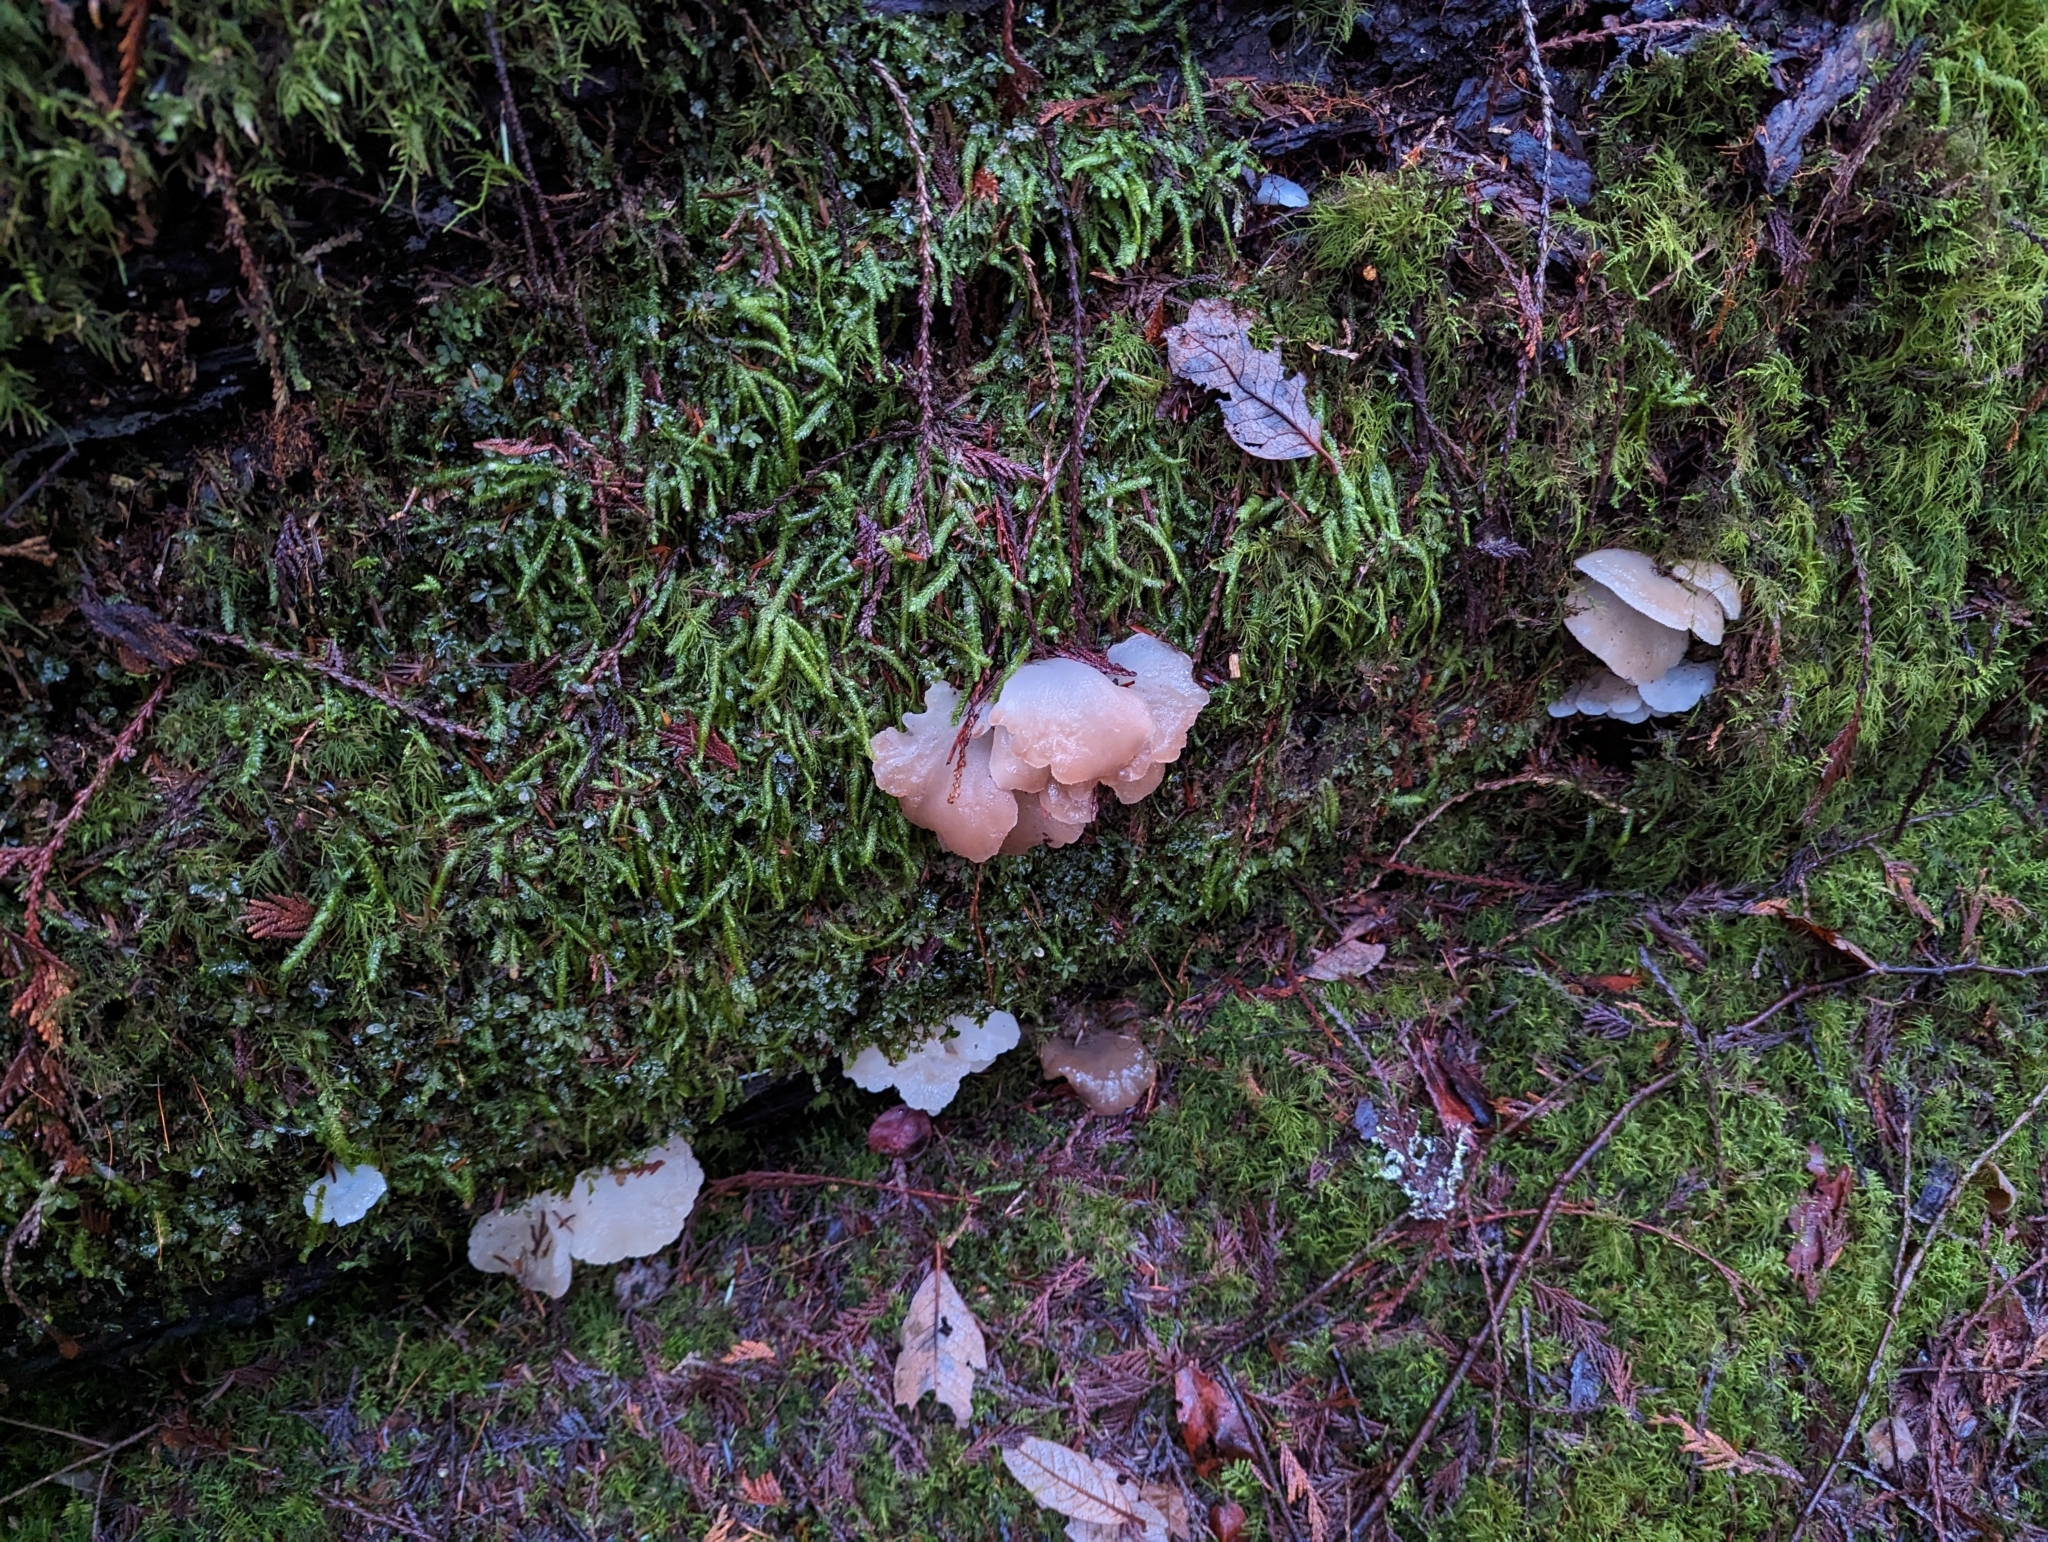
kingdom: Fungi
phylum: Basidiomycota
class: Agaricomycetes
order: Auriculariales
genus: Pseudohydnum
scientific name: Pseudohydnum gelatinosum
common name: Jelly tongue
